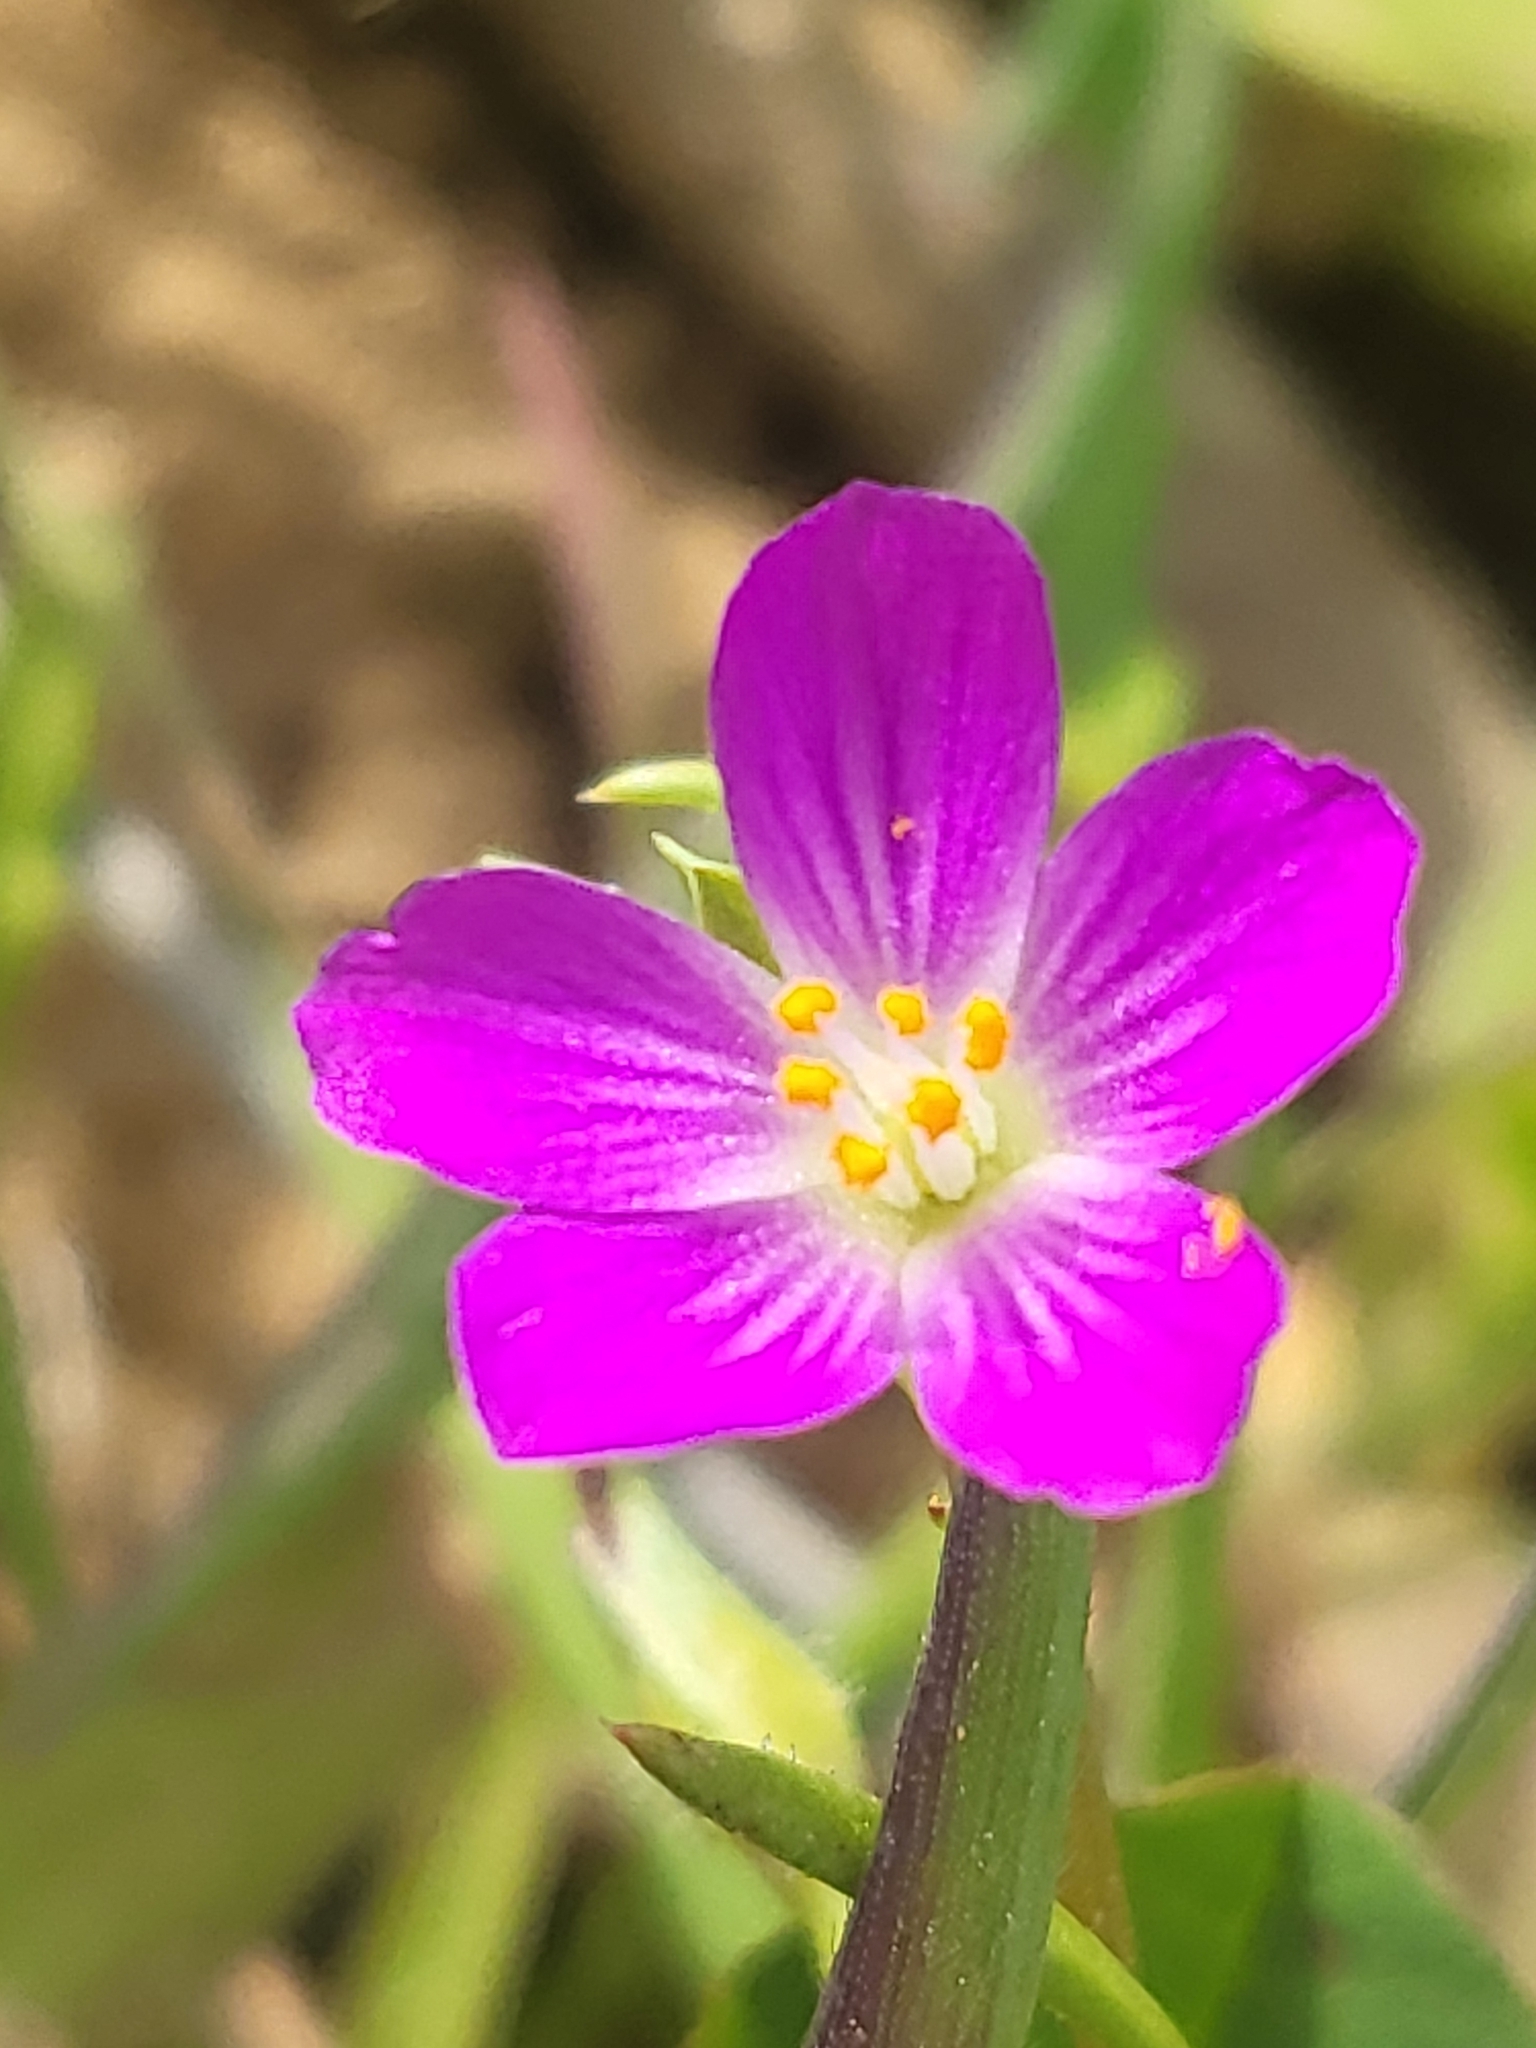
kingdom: Plantae
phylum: Tracheophyta
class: Magnoliopsida
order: Caryophyllales
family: Montiaceae
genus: Calandrinia
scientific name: Calandrinia menziesii
